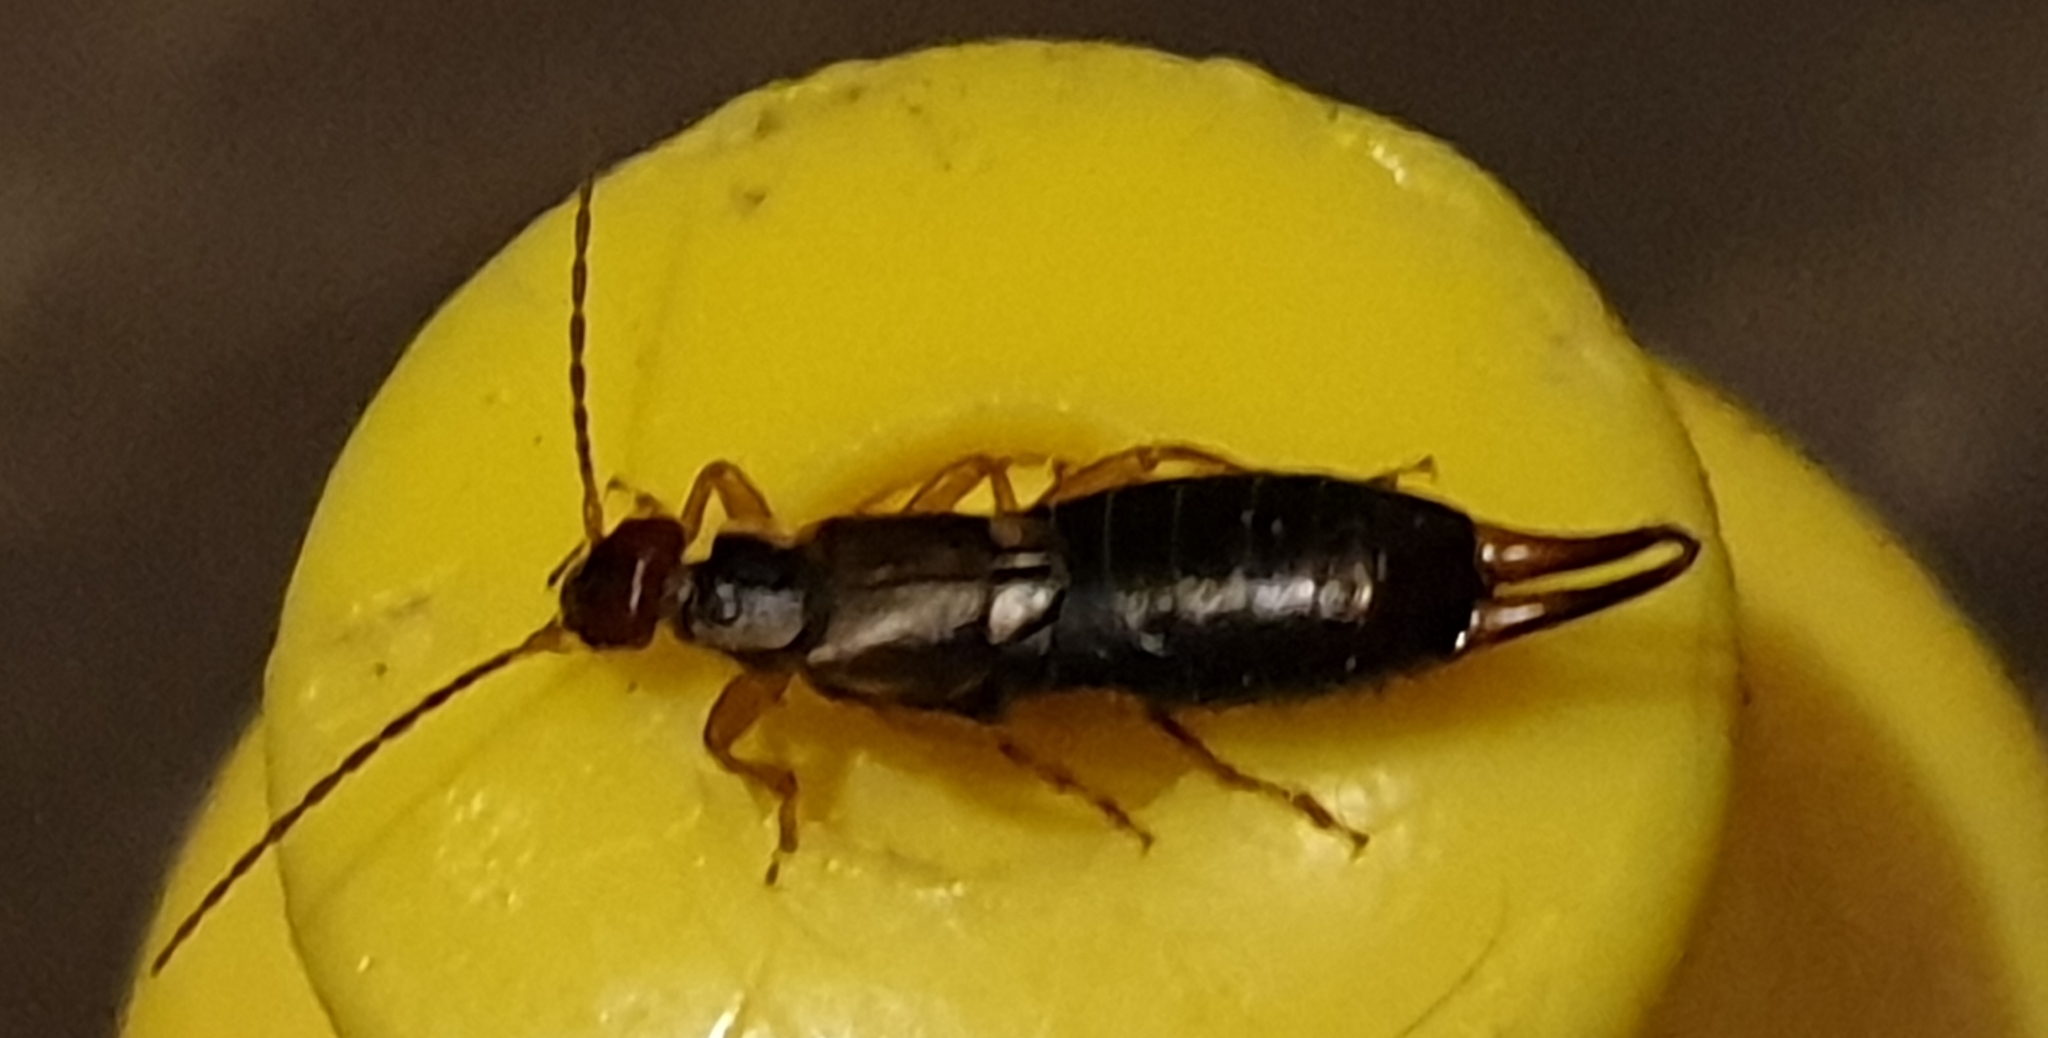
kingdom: Animalia
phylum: Arthropoda
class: Insecta
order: Dermaptera
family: Forficulidae
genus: Forficula
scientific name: Forficula
